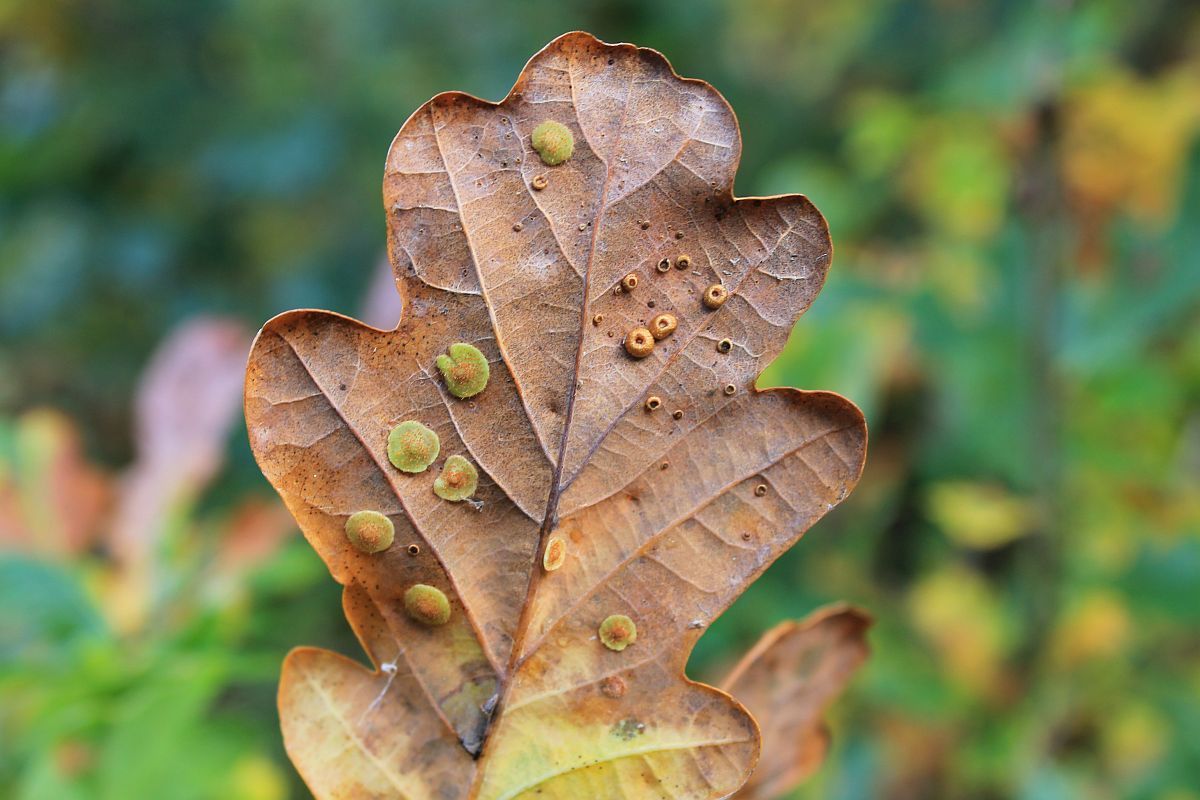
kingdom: Animalia
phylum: Arthropoda
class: Insecta
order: Hymenoptera
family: Cynipidae
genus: Neuroterus
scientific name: Neuroterus quercusbaccarum
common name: Common spangle gall
